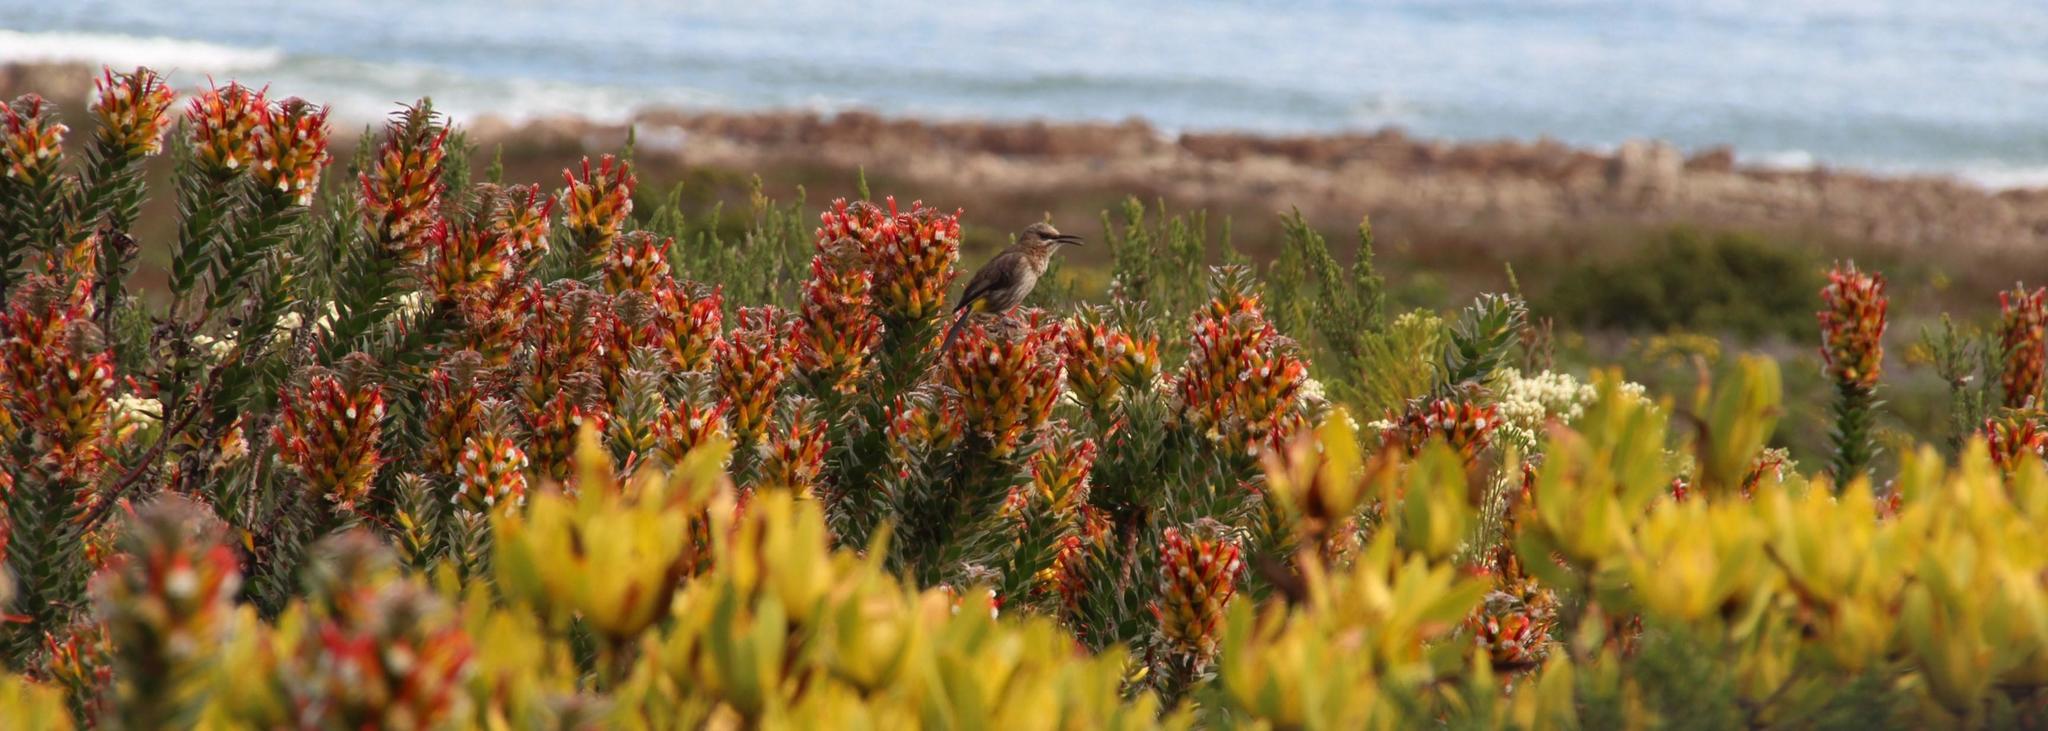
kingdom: Plantae
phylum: Tracheophyta
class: Magnoliopsida
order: Proteales
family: Proteaceae
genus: Mimetes
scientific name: Mimetes hirtus
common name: Marsh pagoda
